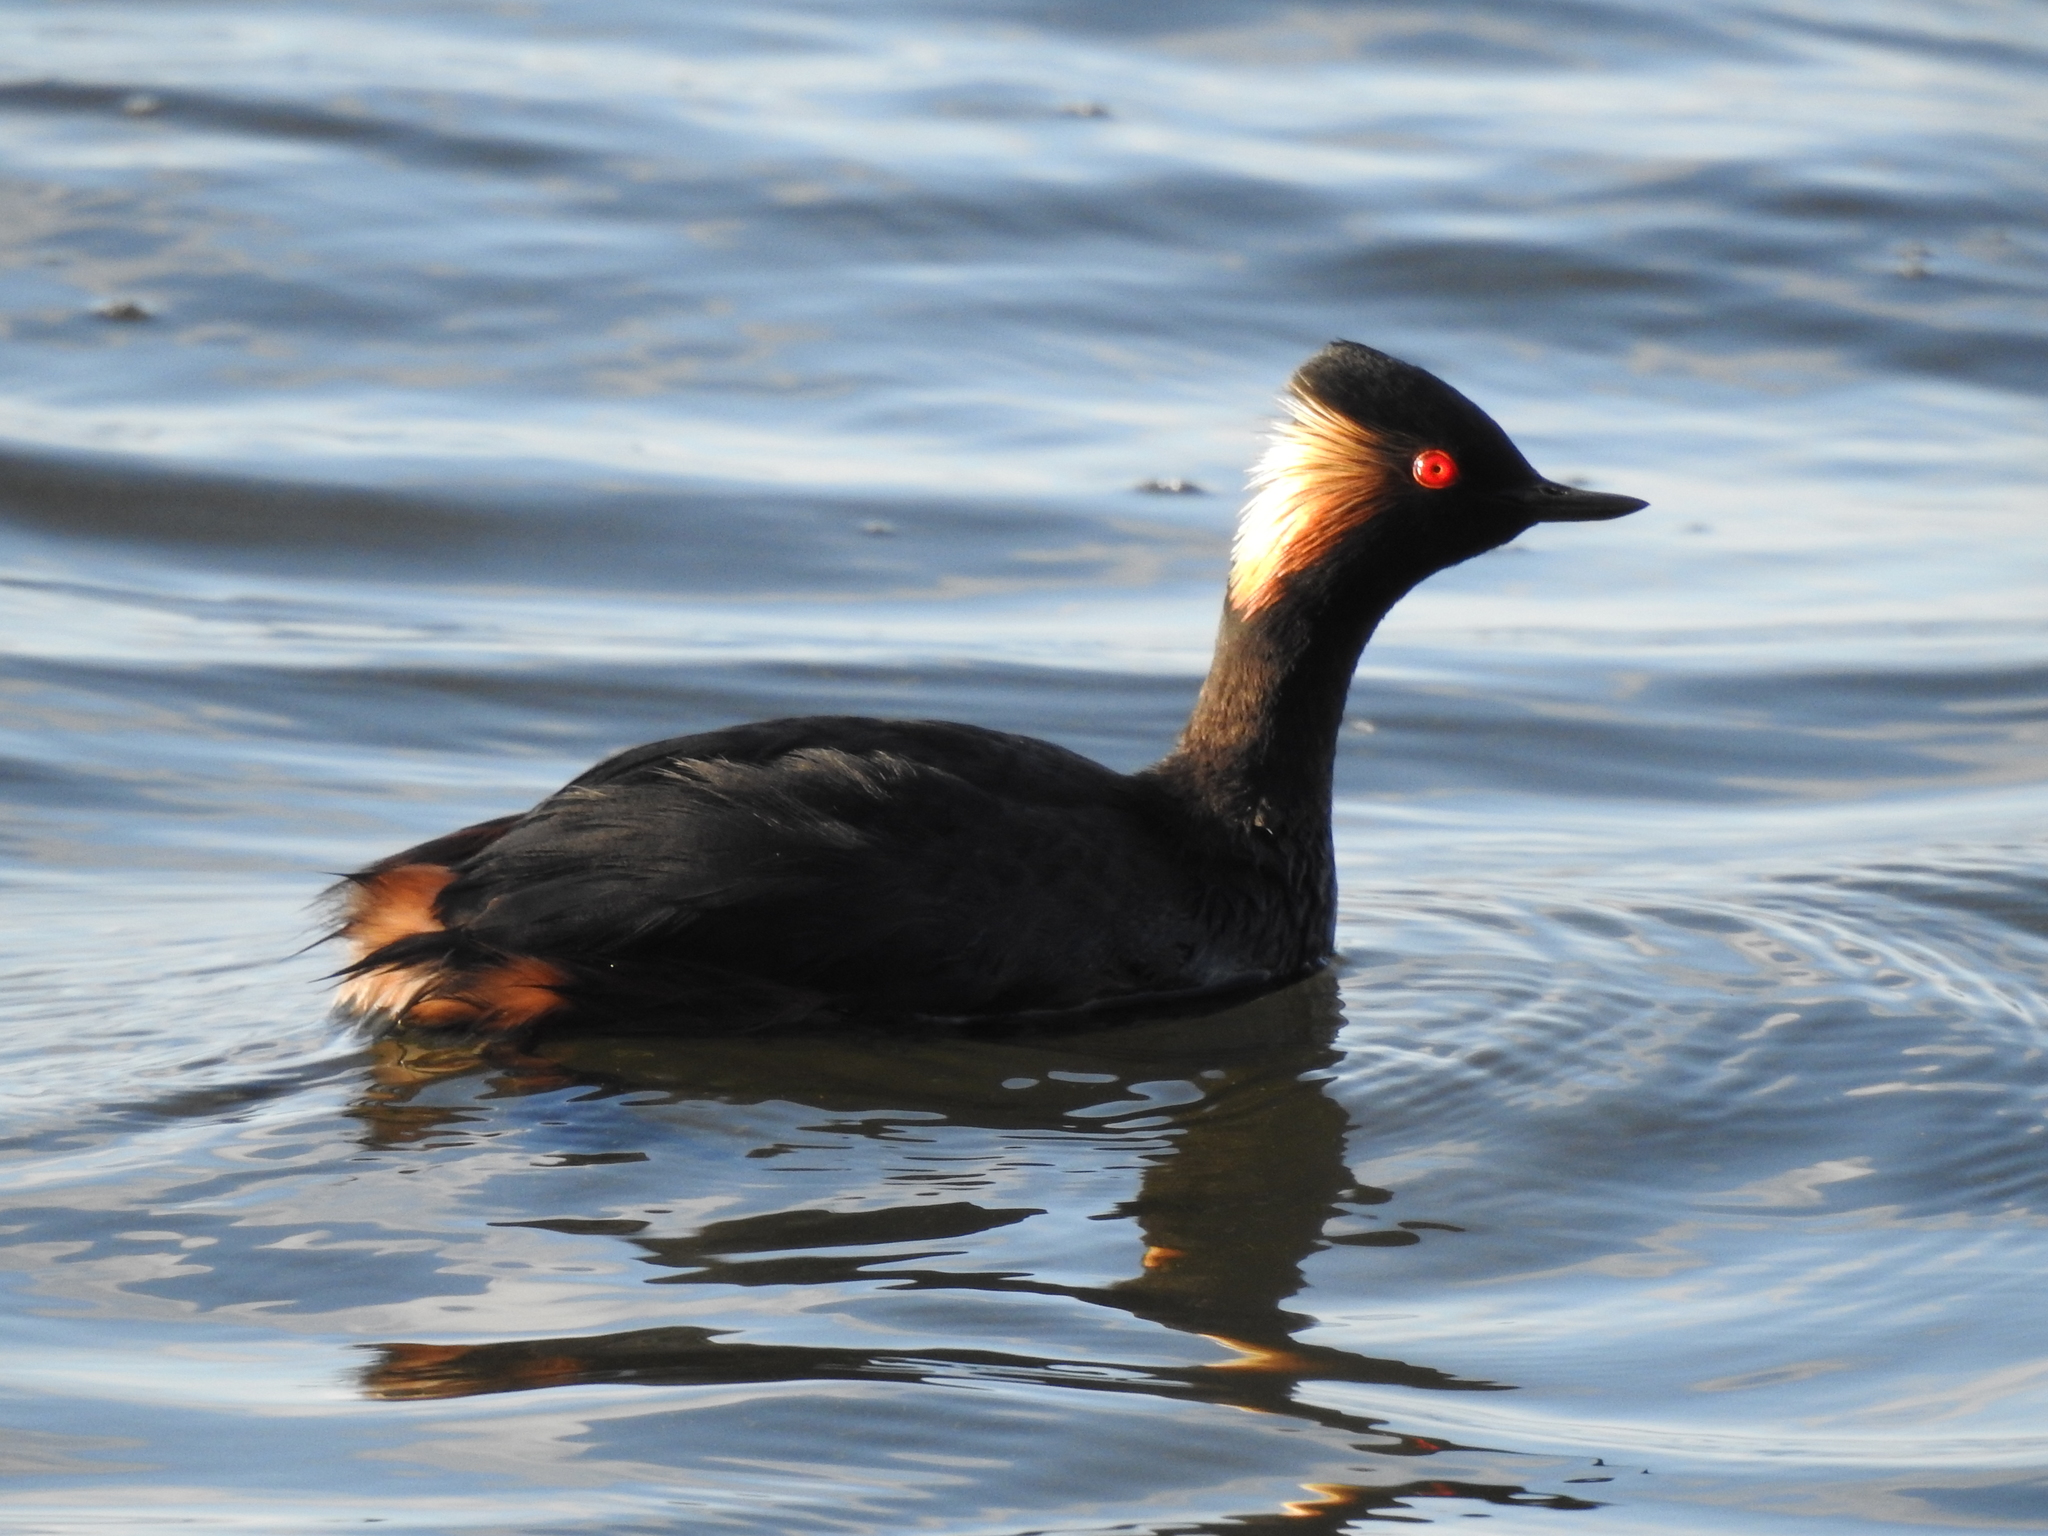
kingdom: Animalia
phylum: Chordata
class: Aves
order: Podicipediformes
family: Podicipedidae
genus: Podiceps
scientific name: Podiceps nigricollis
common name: Black-necked grebe
